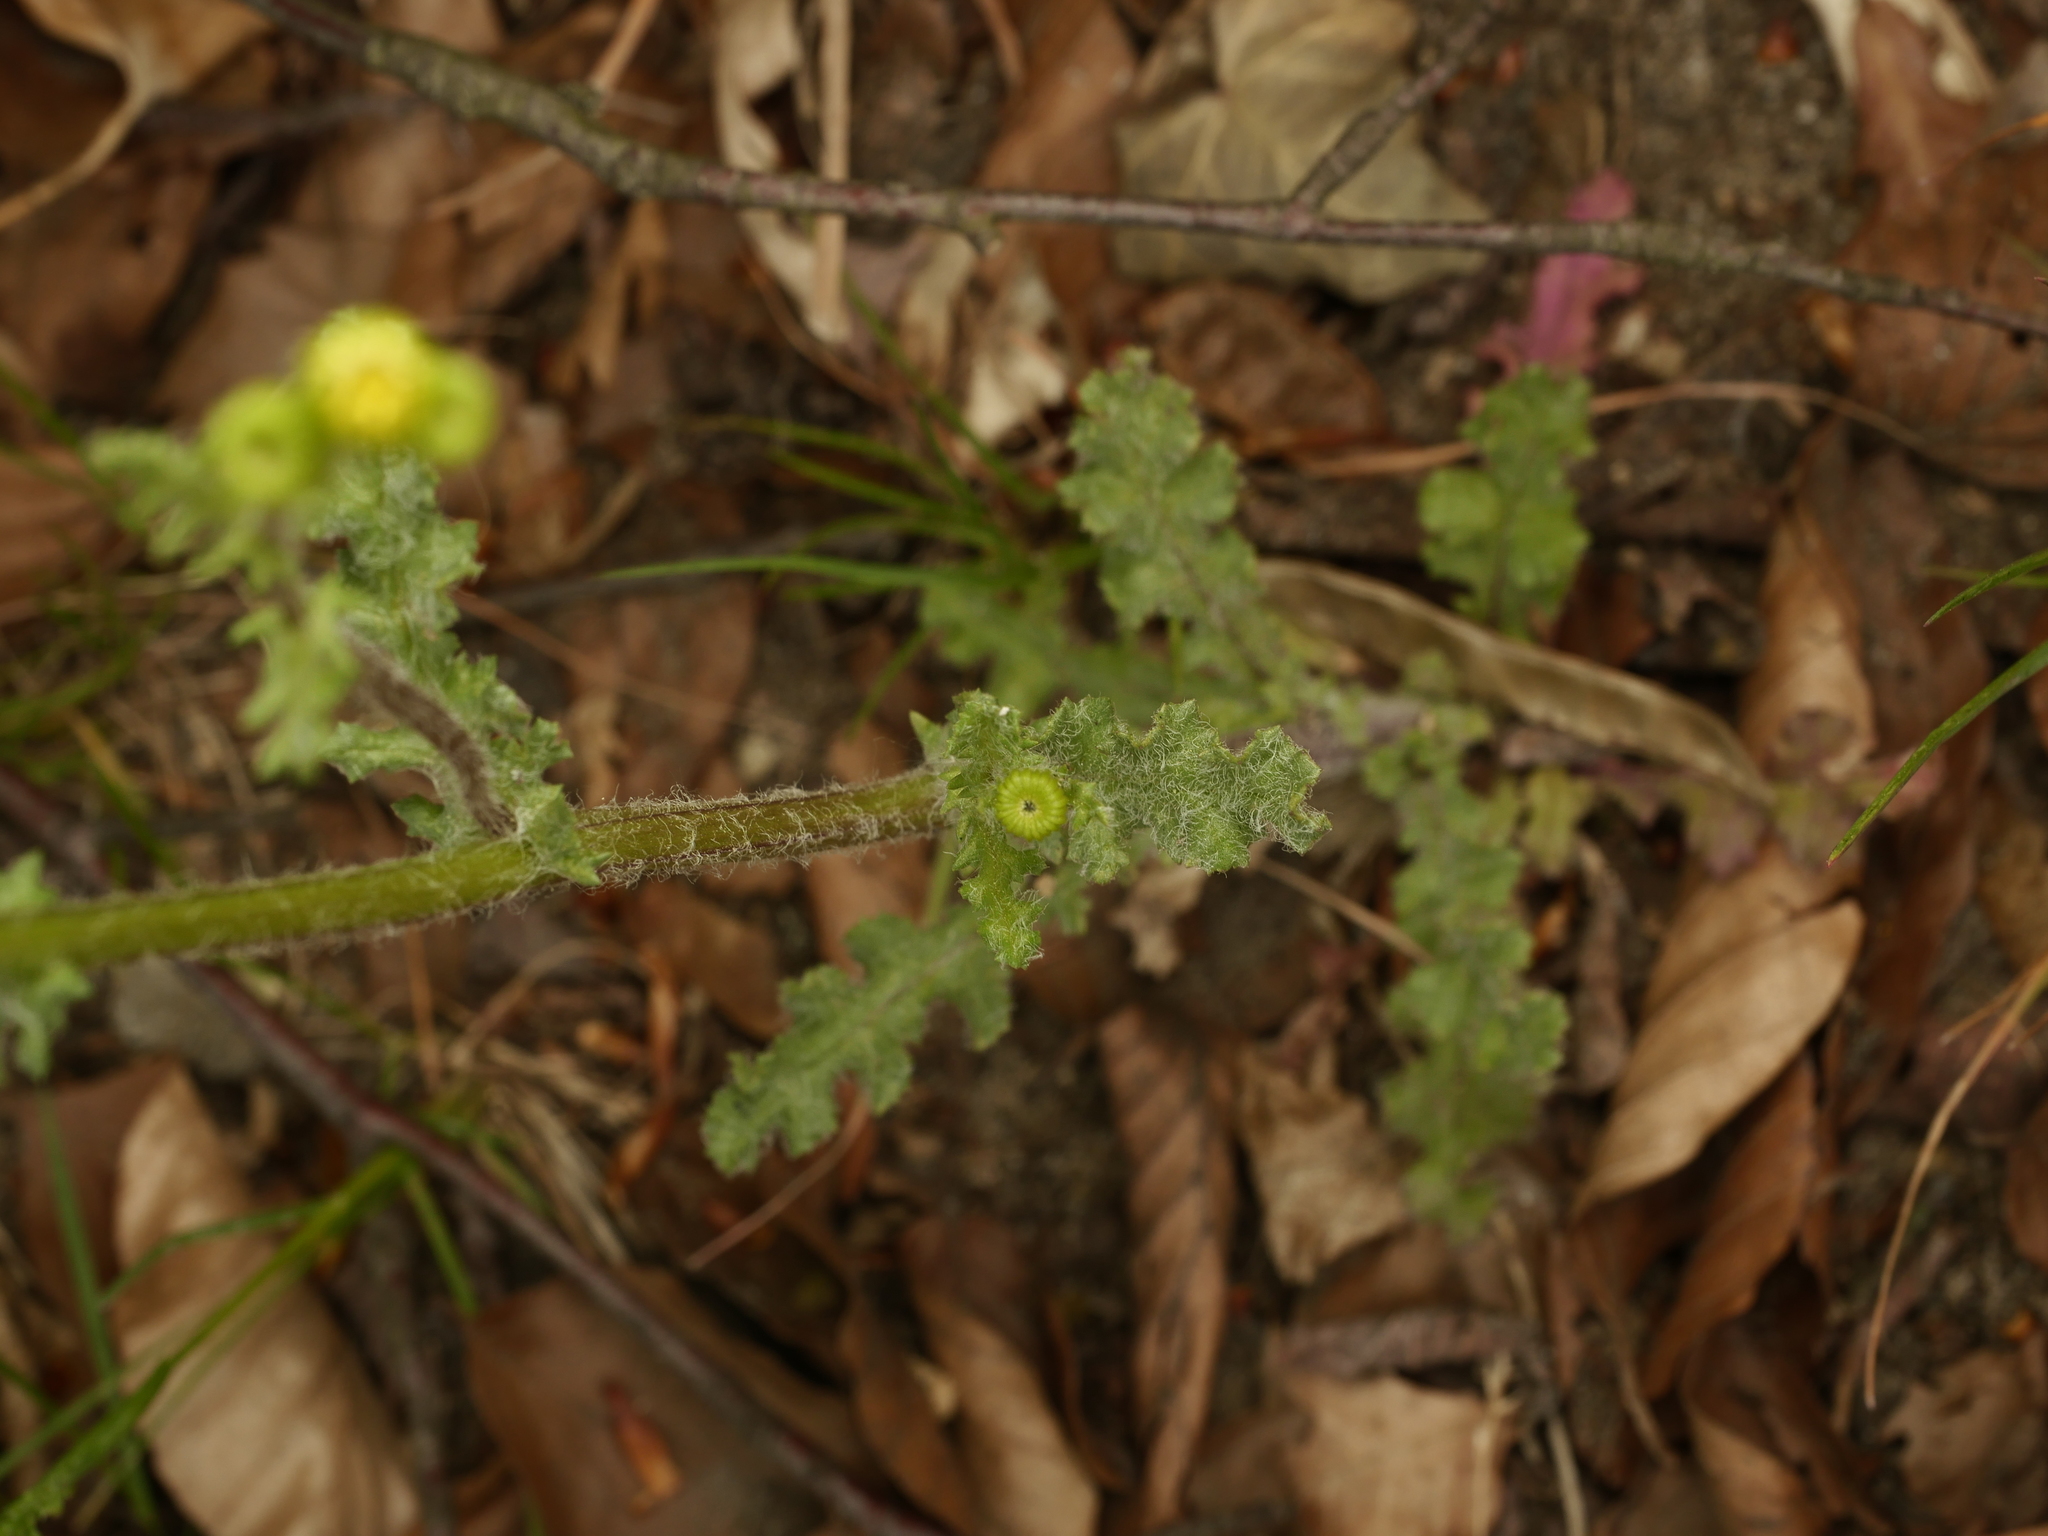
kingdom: Plantae
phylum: Tracheophyta
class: Magnoliopsida
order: Asterales
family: Asteraceae
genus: Senecio
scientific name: Senecio vernalis
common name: Eastern groundsel
